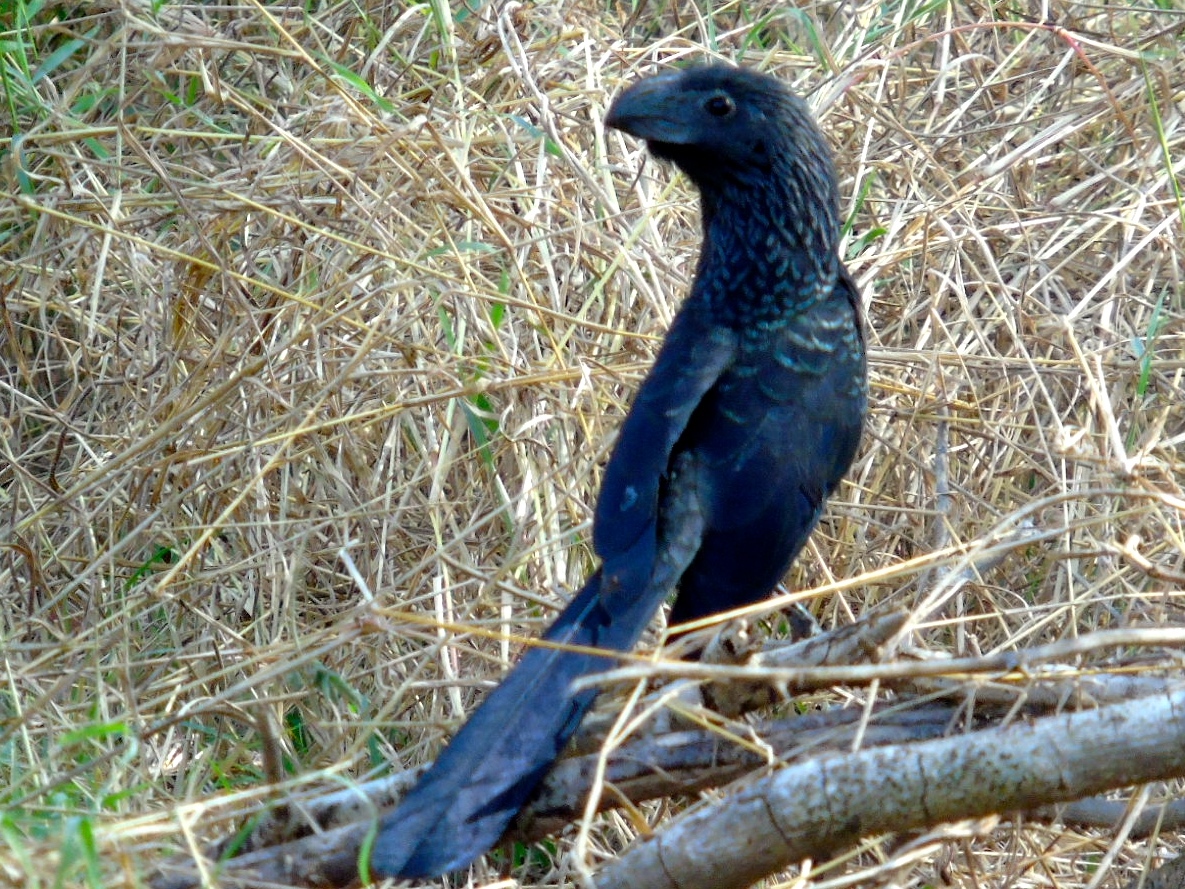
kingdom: Animalia
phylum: Chordata
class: Aves
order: Cuculiformes
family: Cuculidae
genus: Crotophaga
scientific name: Crotophaga sulcirostris
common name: Groove-billed ani
